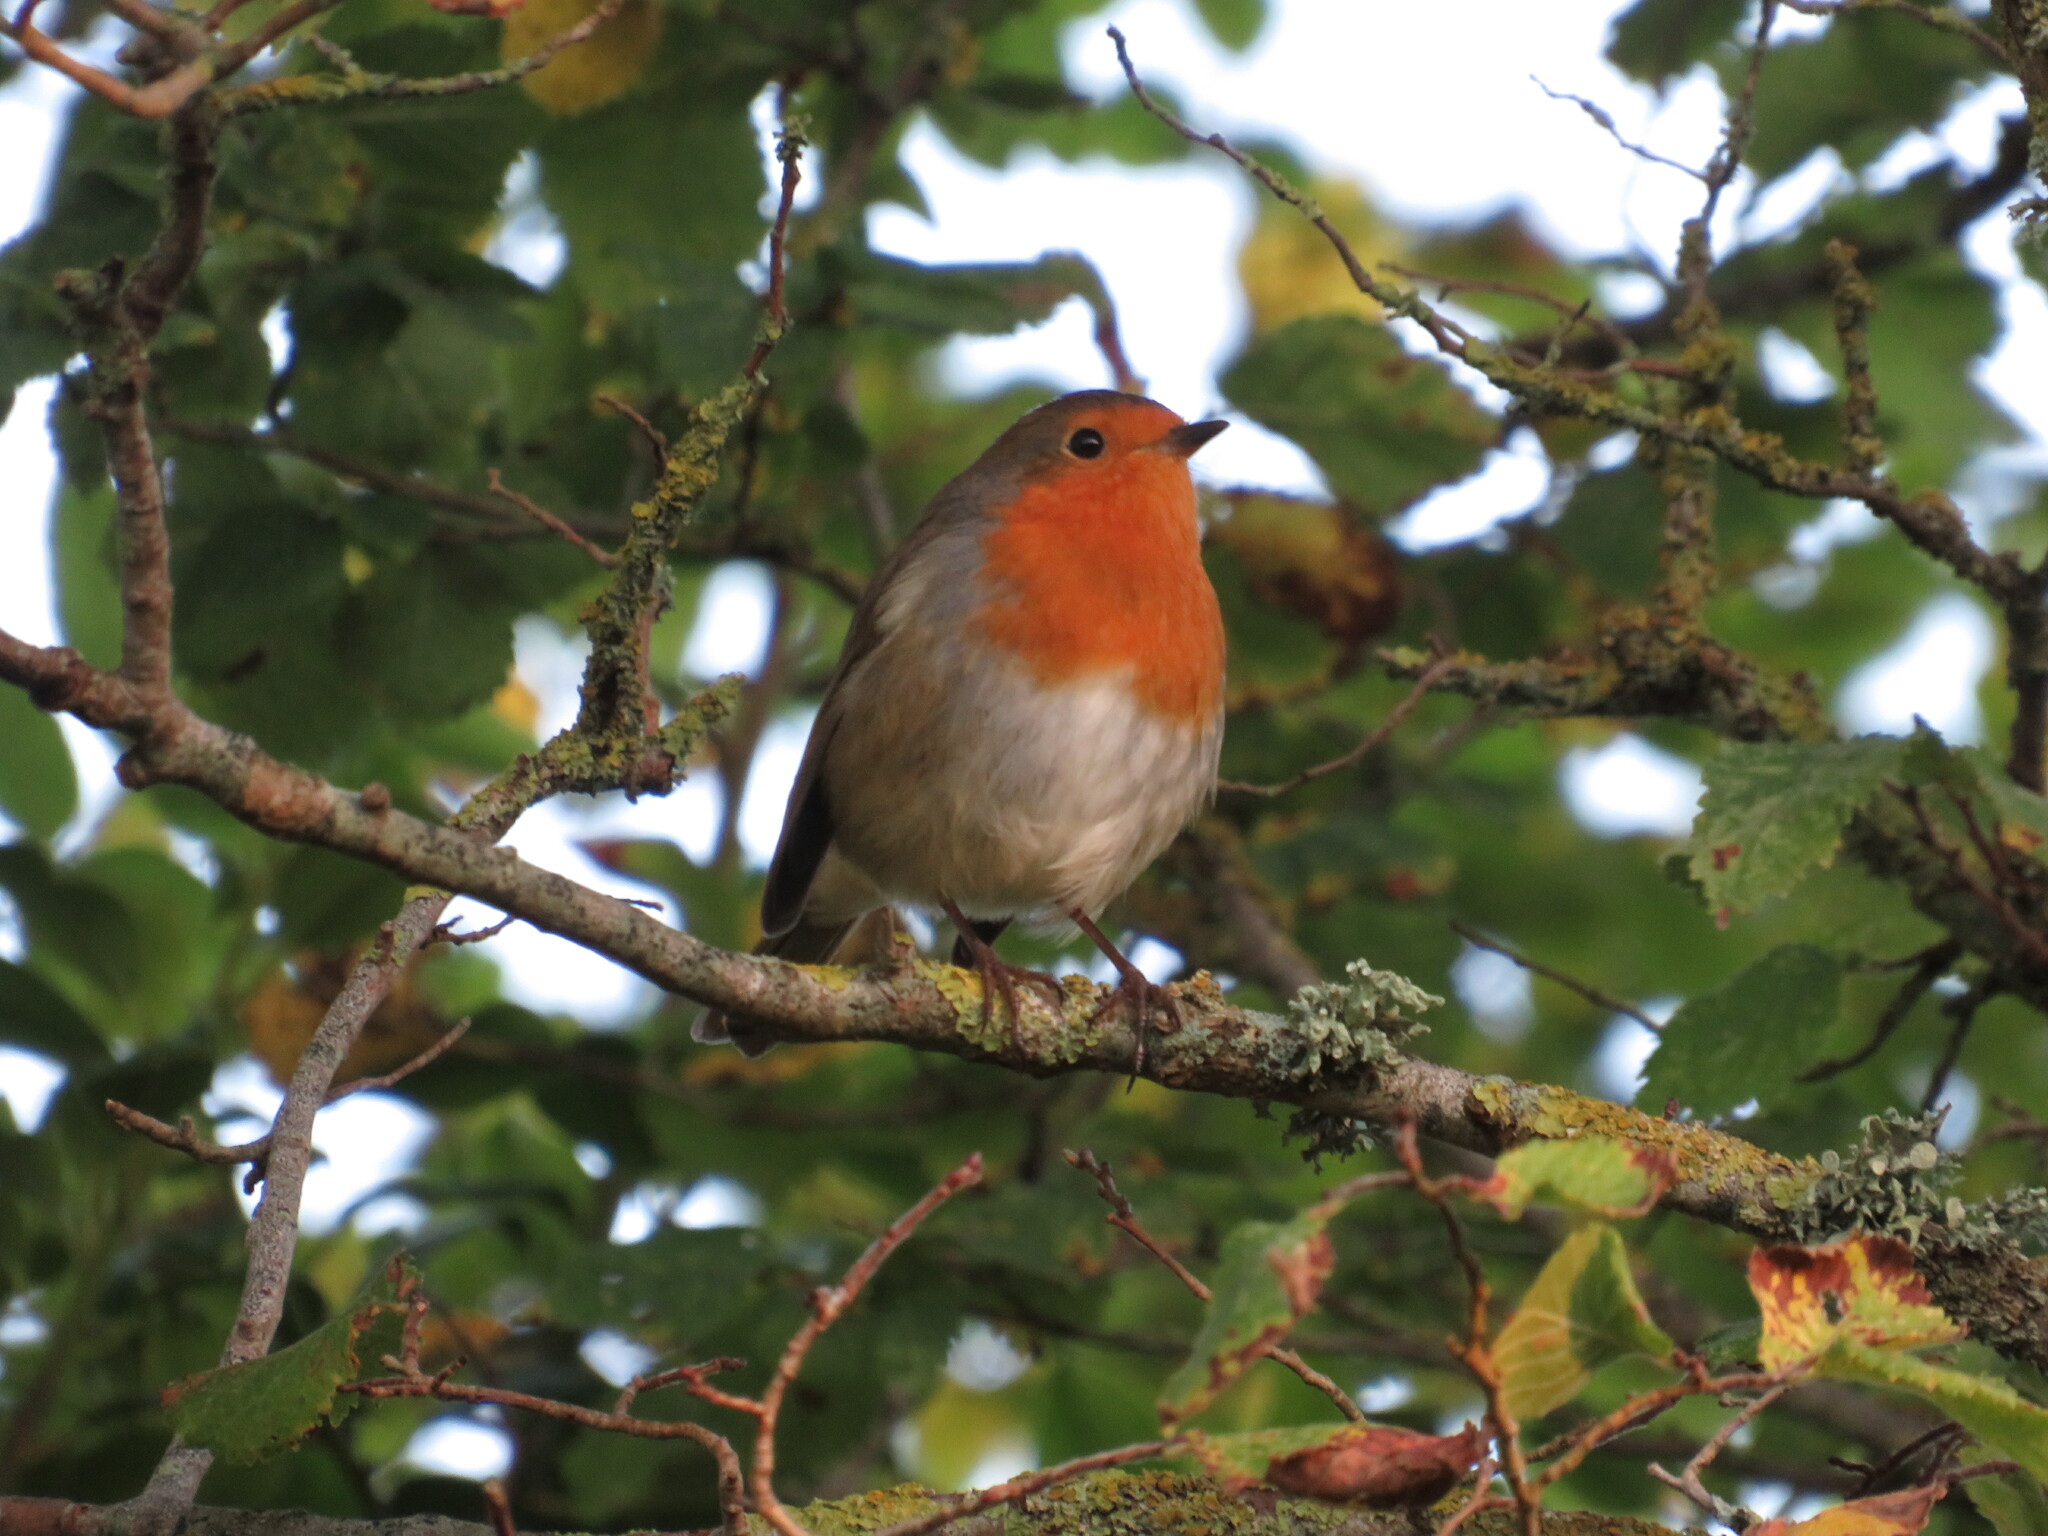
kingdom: Animalia
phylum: Chordata
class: Aves
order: Passeriformes
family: Muscicapidae
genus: Erithacus
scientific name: Erithacus rubecula
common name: European robin
